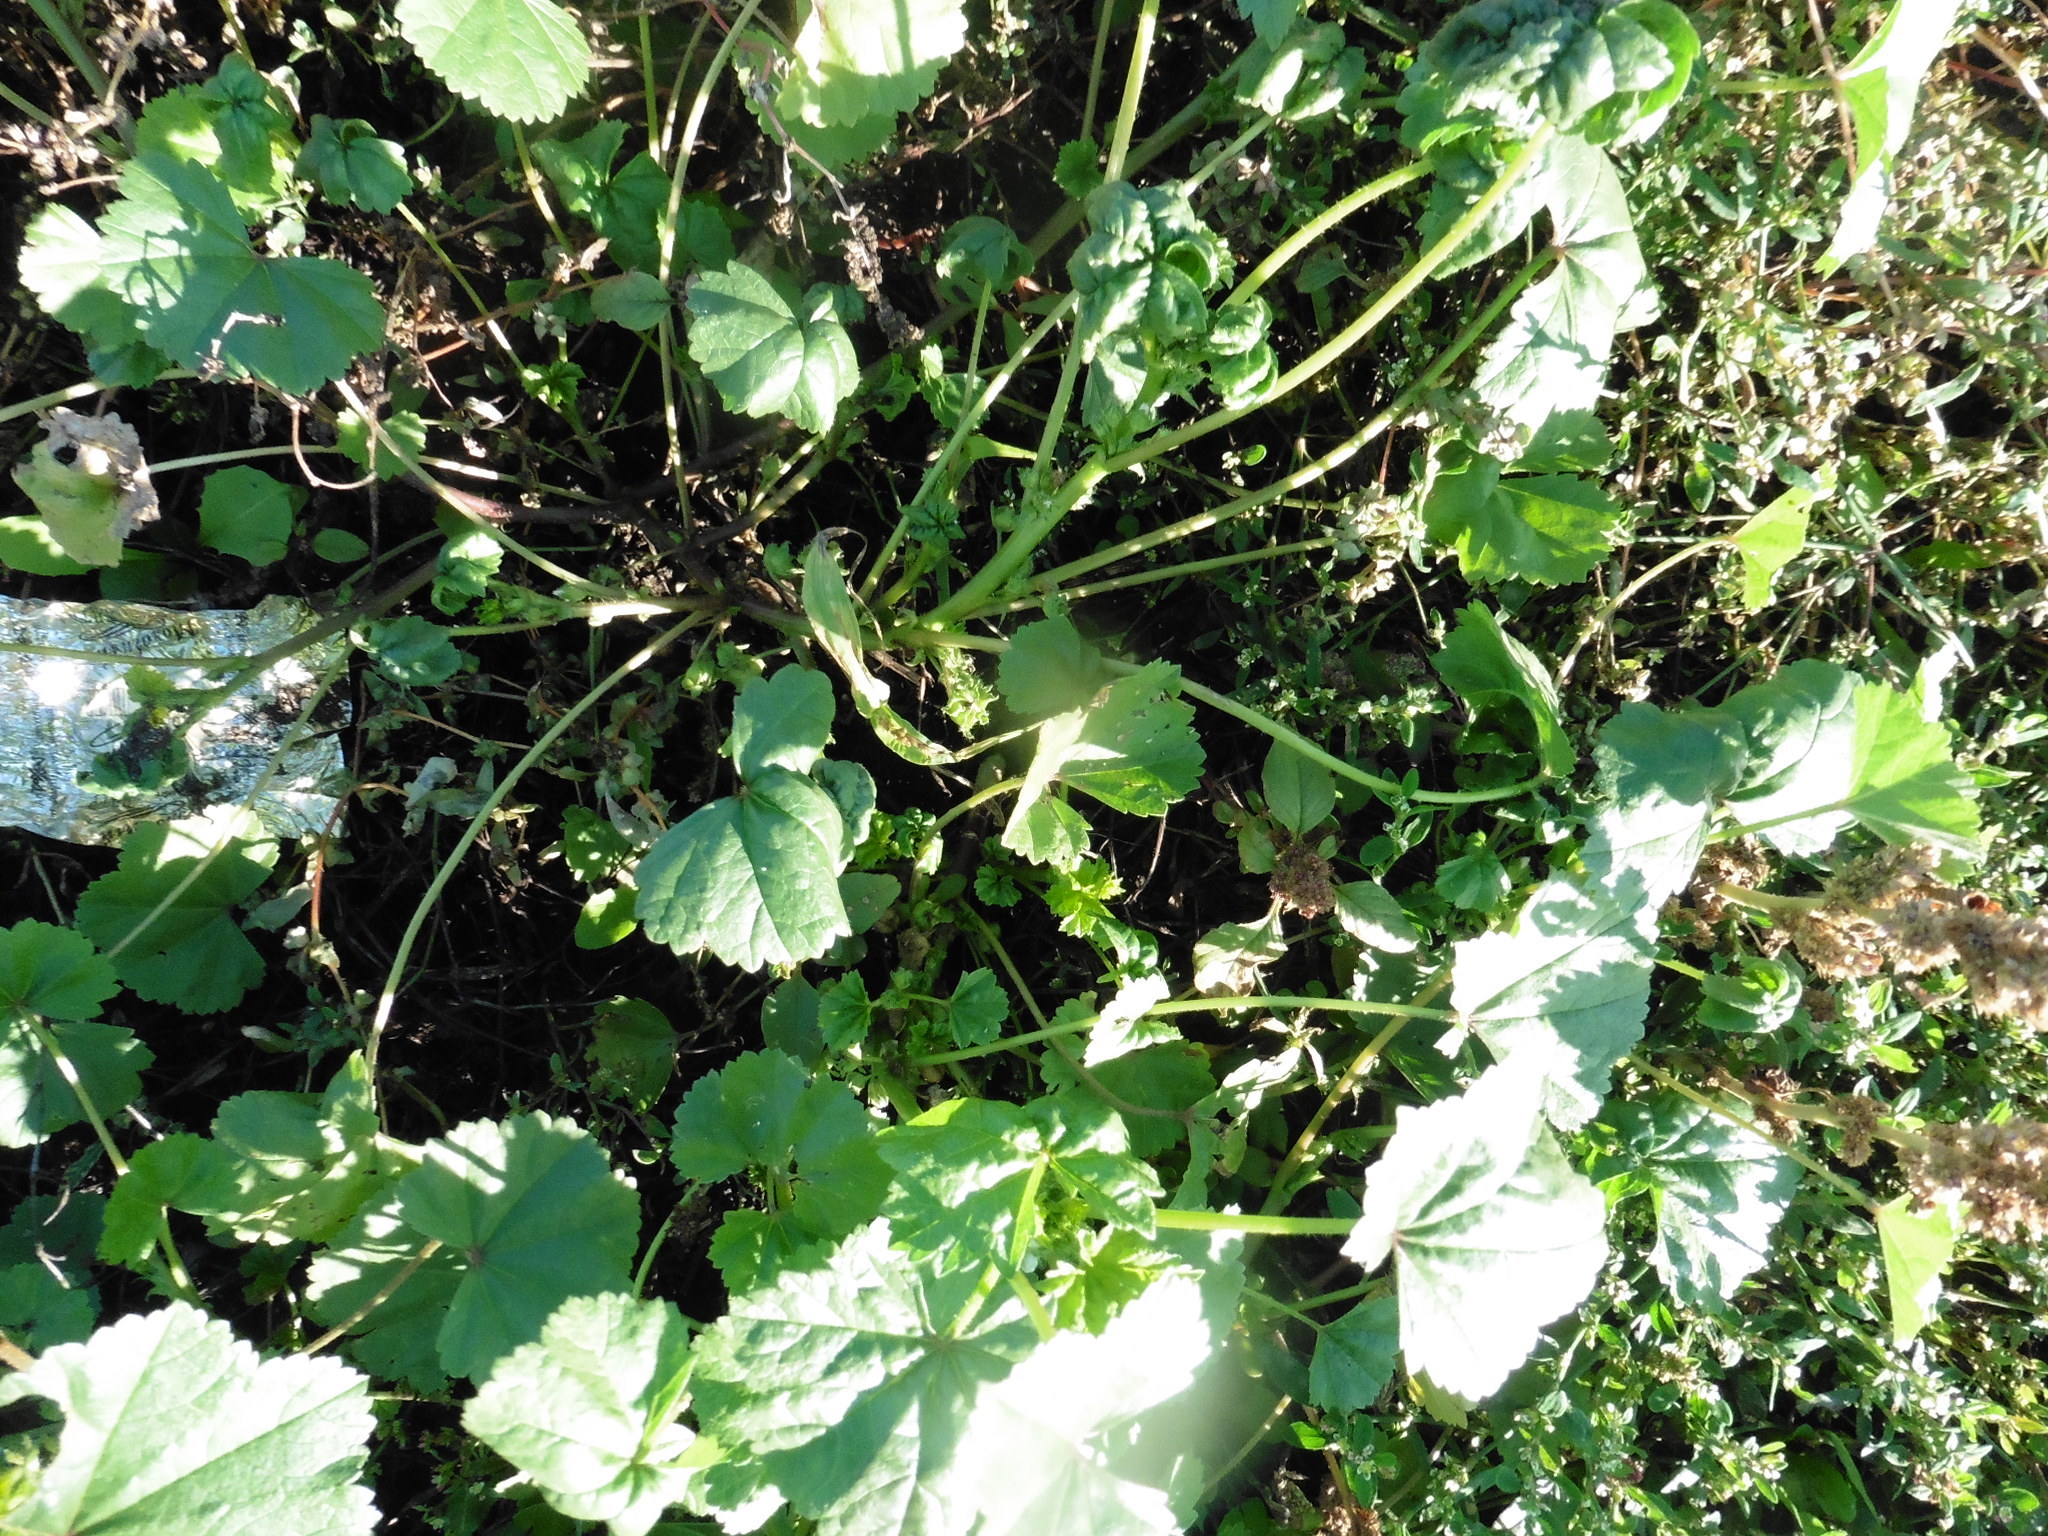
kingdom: Plantae
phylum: Tracheophyta
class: Magnoliopsida
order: Malvales
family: Malvaceae
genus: Malva
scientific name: Malva pusilla
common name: Small mallow
